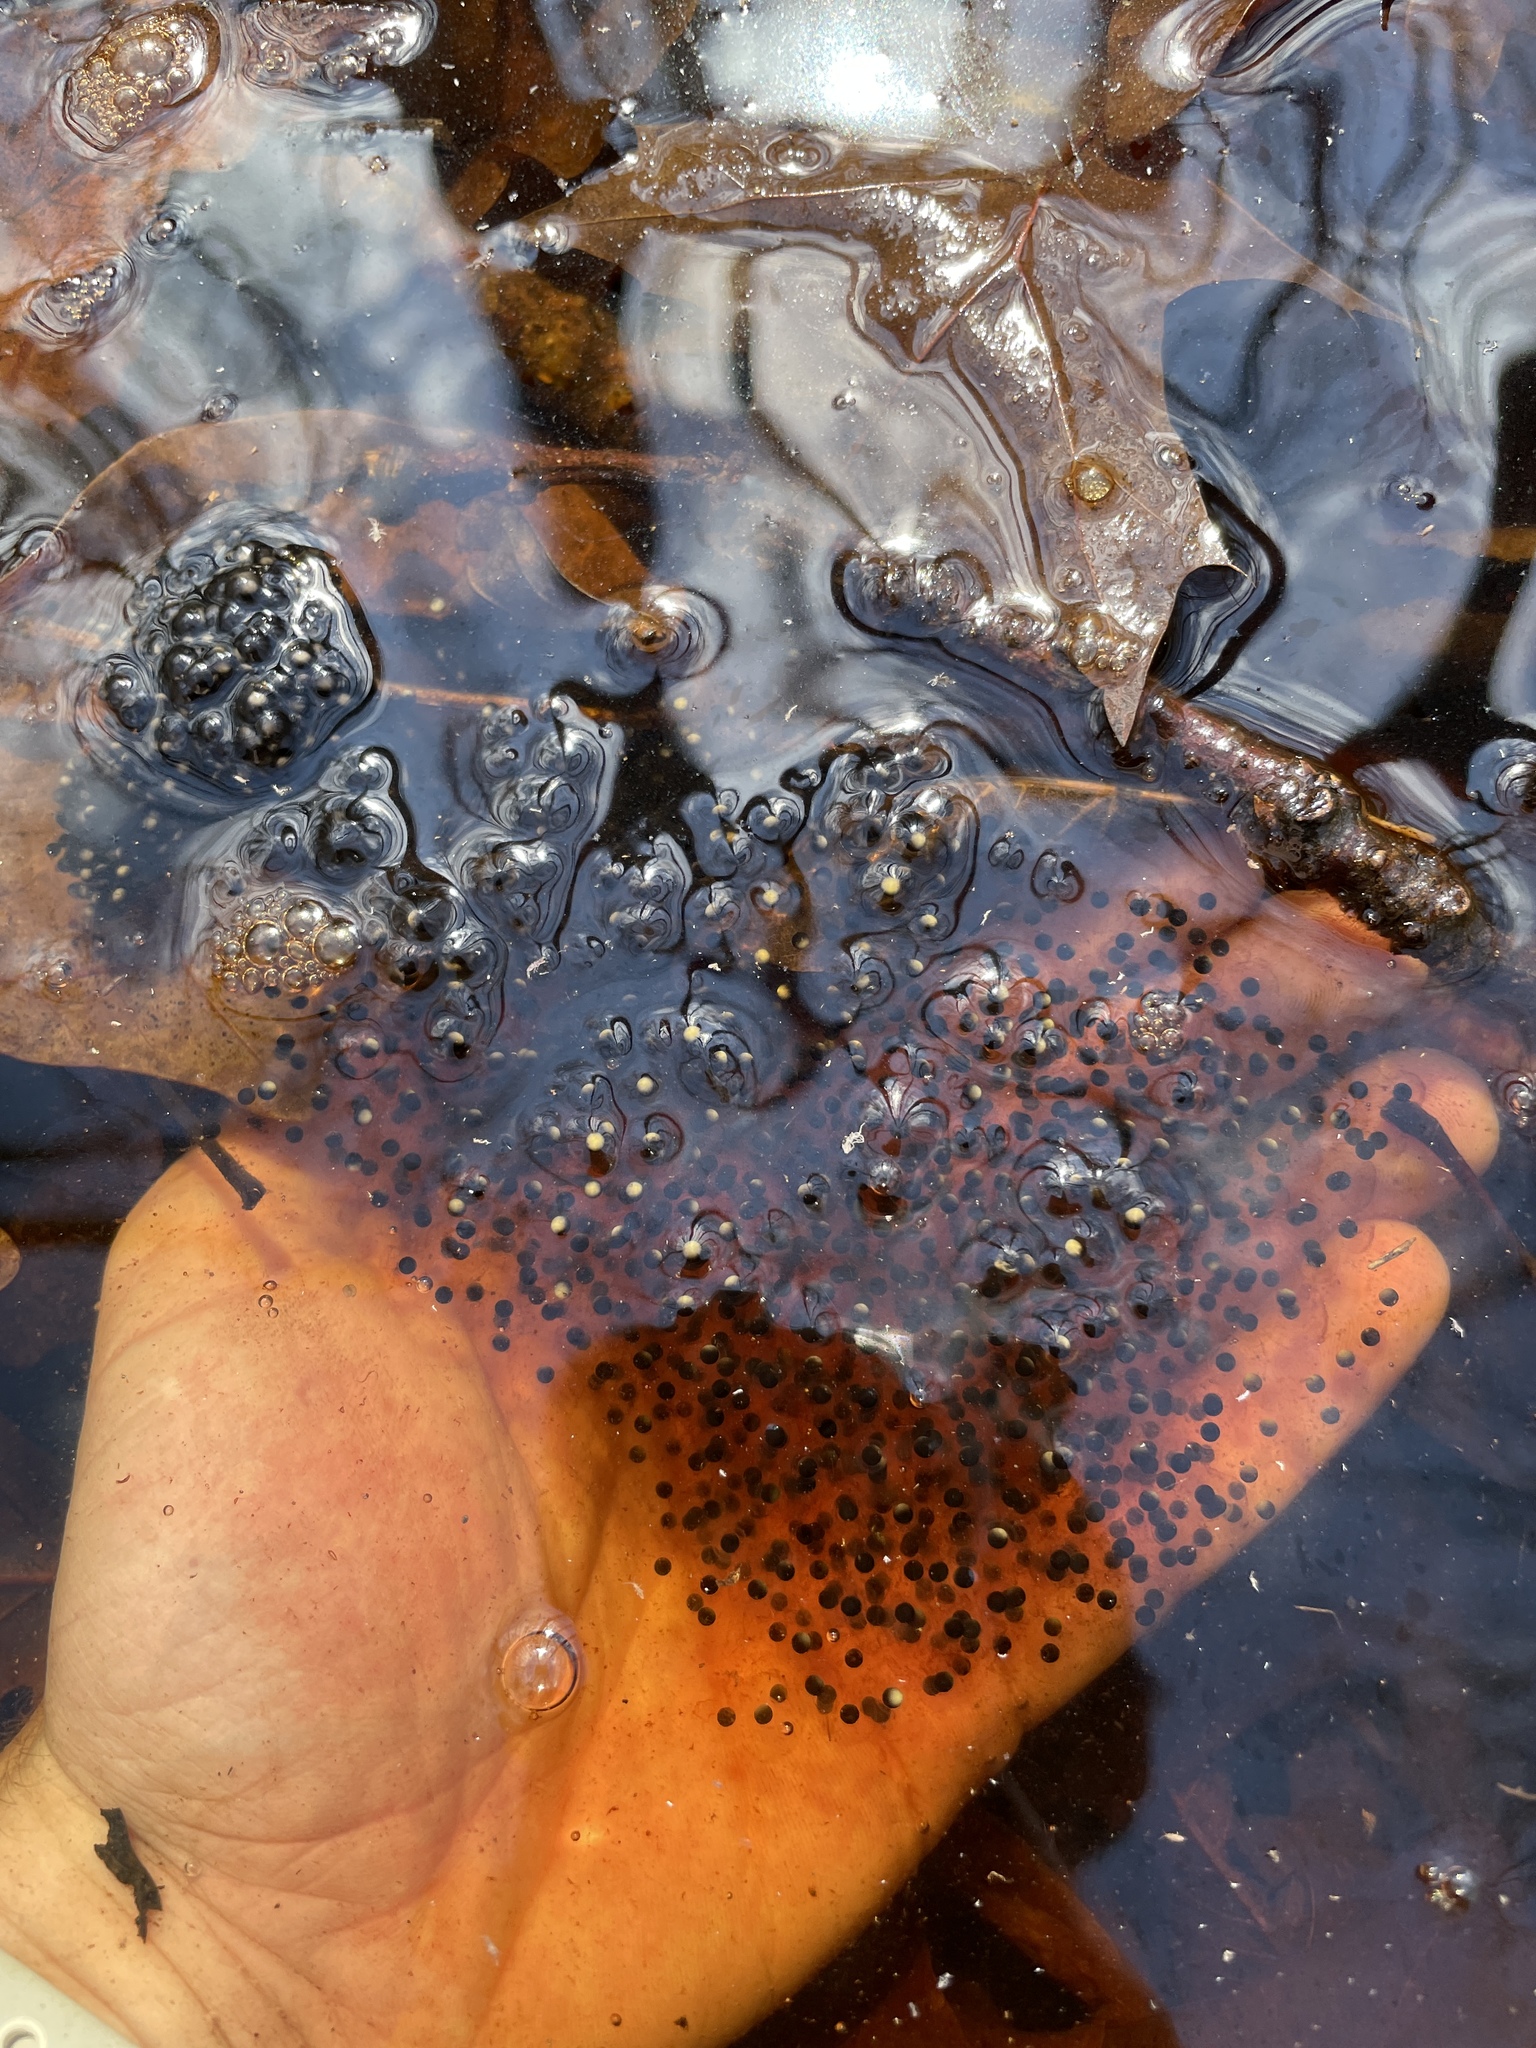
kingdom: Animalia
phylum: Chordata
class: Amphibia
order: Anura
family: Ranidae
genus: Lithobates
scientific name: Lithobates sphenocephalus
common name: Southern leopard frog
